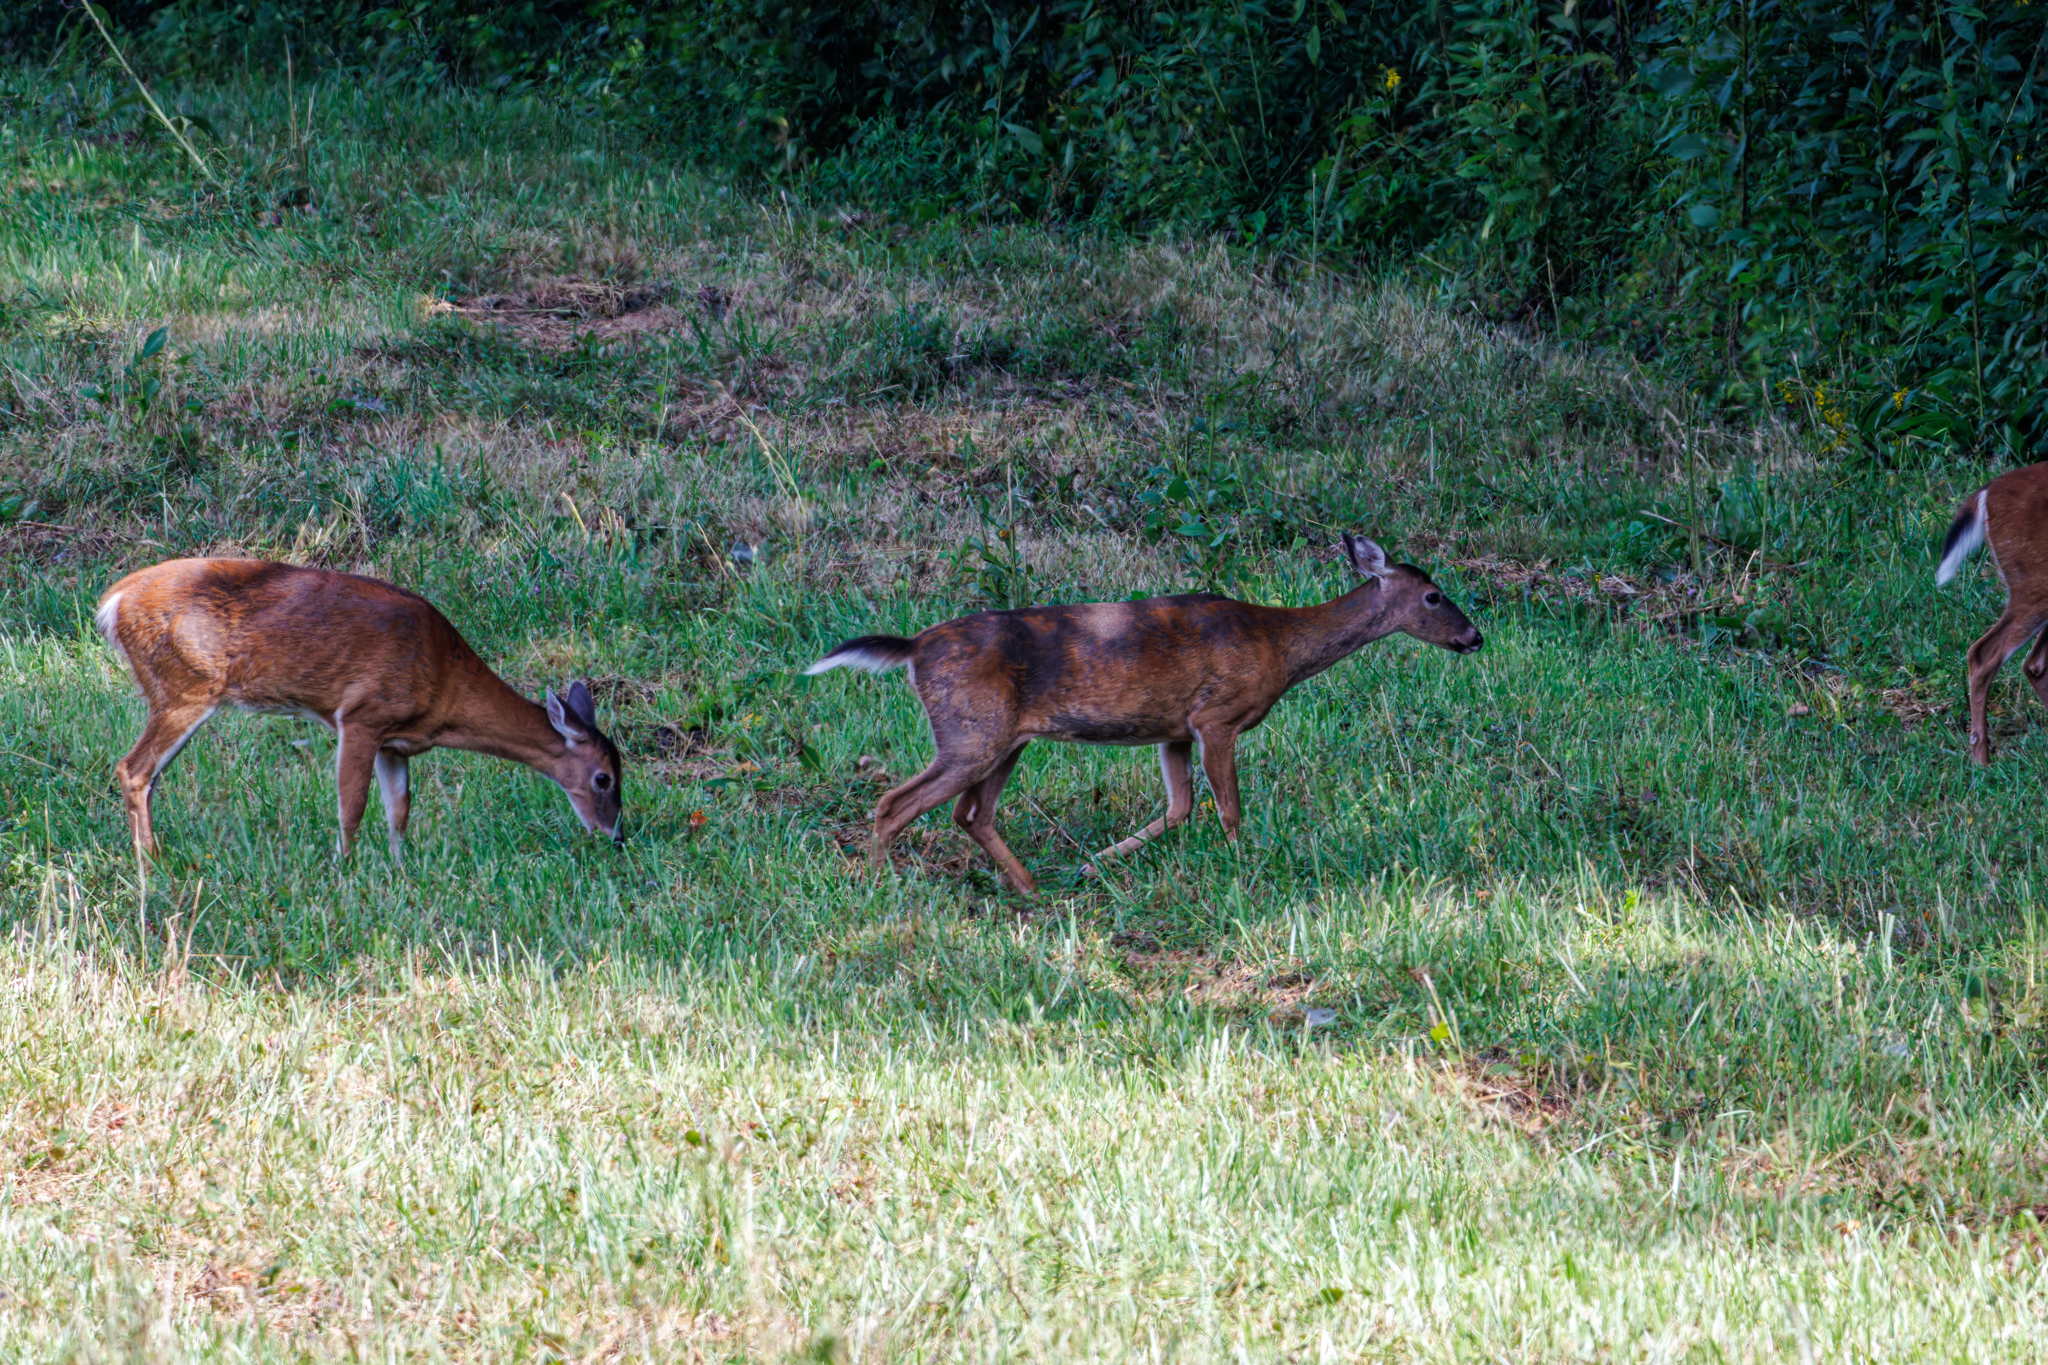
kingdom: Animalia
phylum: Chordata
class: Mammalia
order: Artiodactyla
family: Cervidae
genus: Odocoileus
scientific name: Odocoileus virginianus
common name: White-tailed deer
